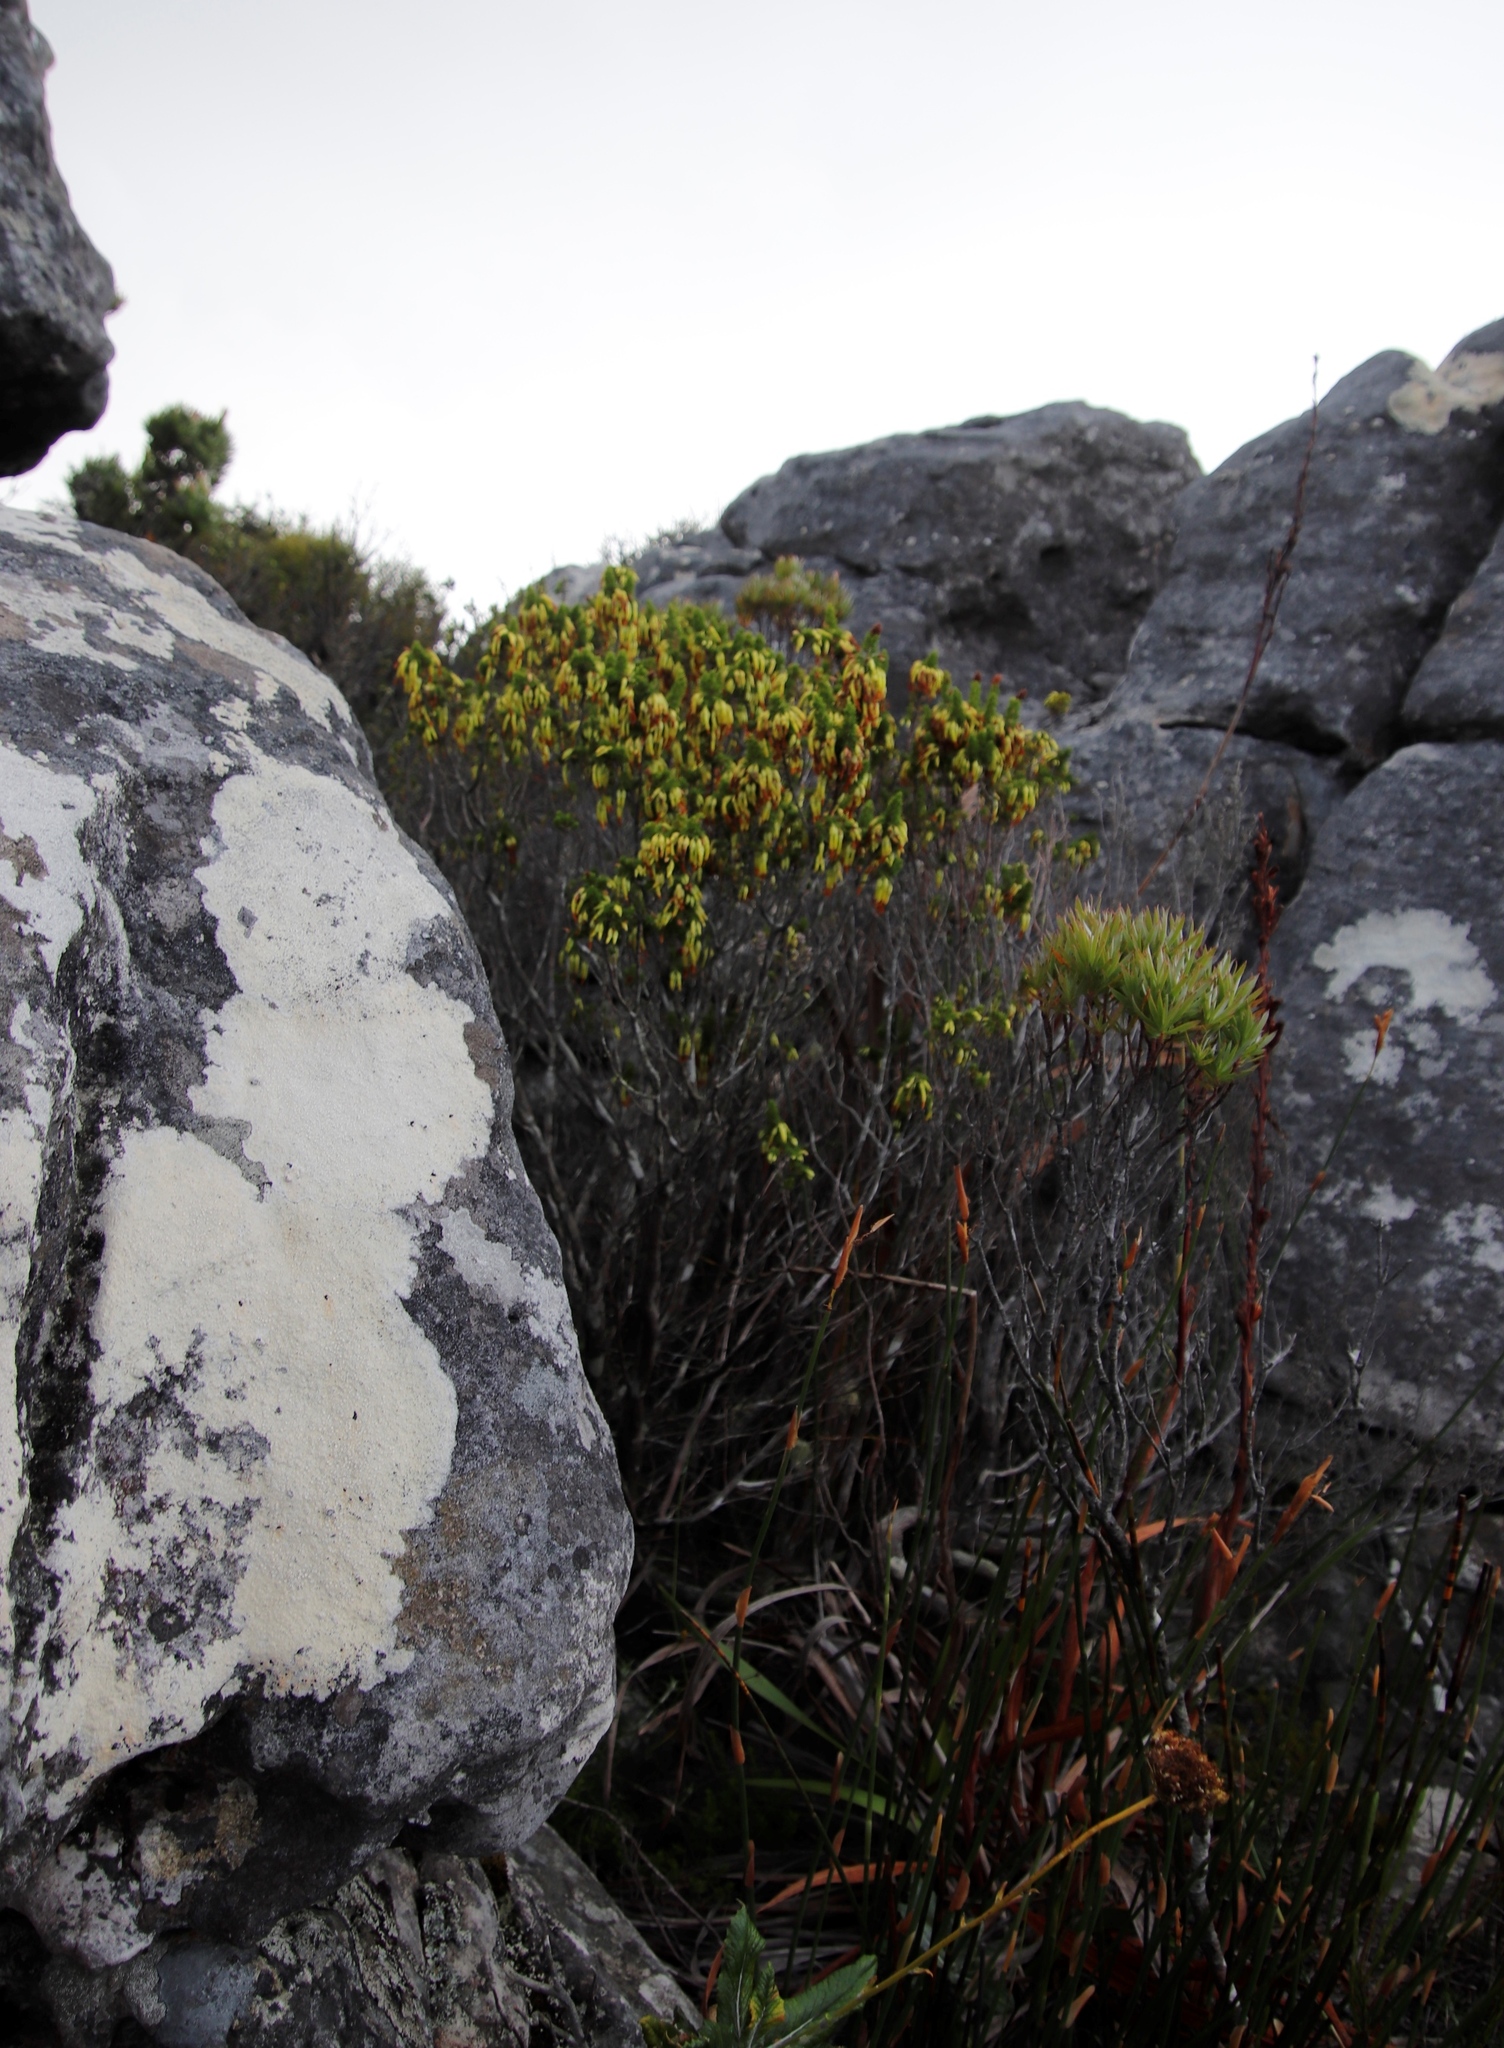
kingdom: Plantae
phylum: Tracheophyta
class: Magnoliopsida
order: Ericales
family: Ericaceae
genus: Erica
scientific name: Erica coccinea
